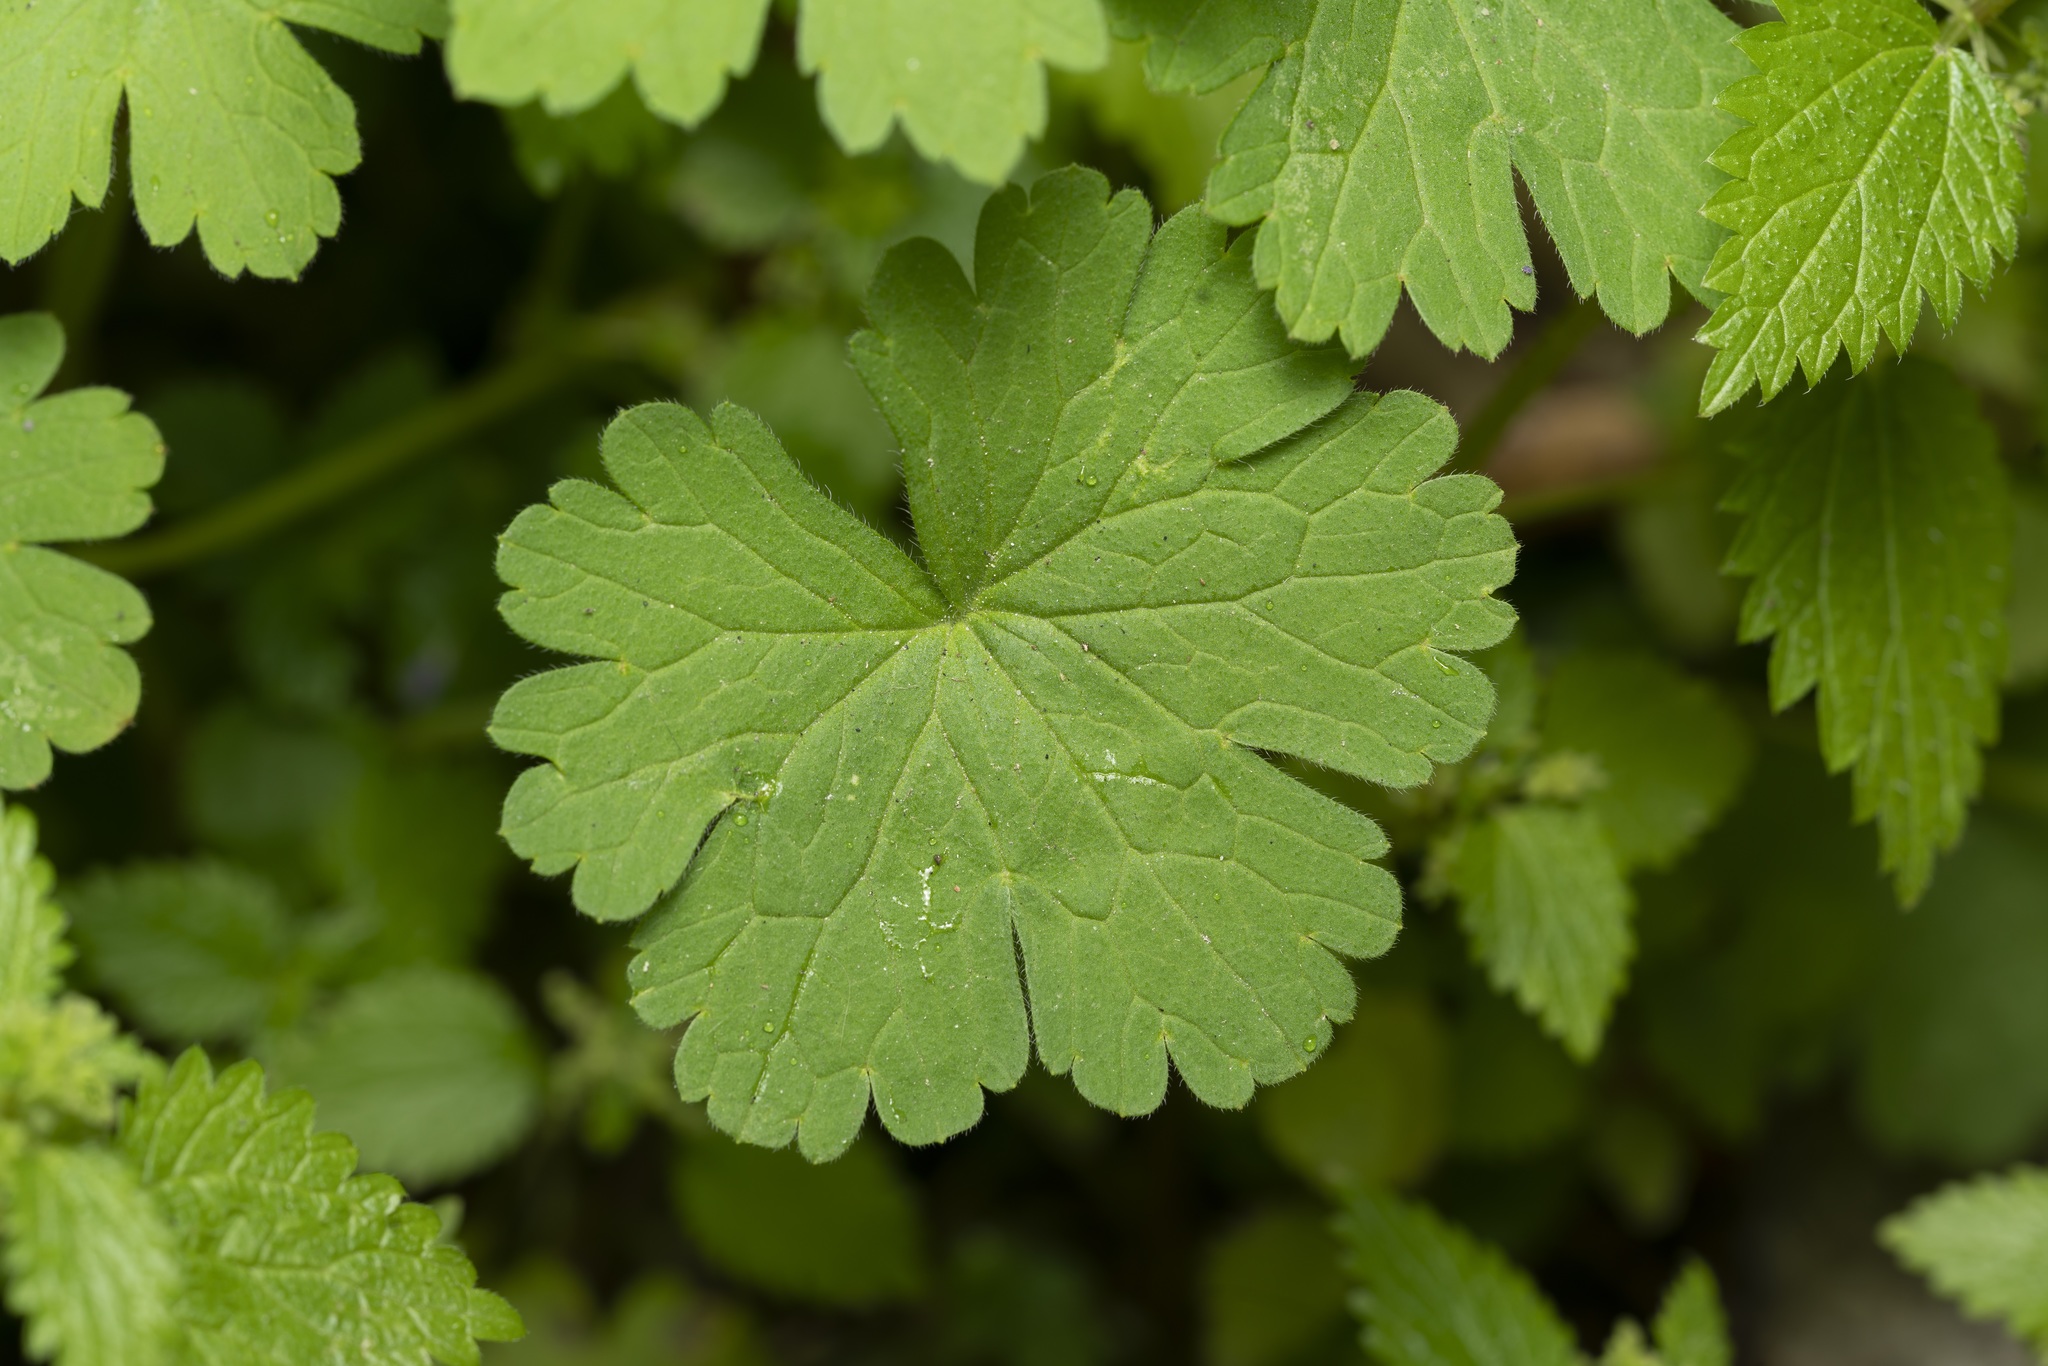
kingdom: Plantae
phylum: Tracheophyta
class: Magnoliopsida
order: Geraniales
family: Geraniaceae
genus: Geranium
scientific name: Geranium rotundifolium
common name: Round-leaved crane's-bill
